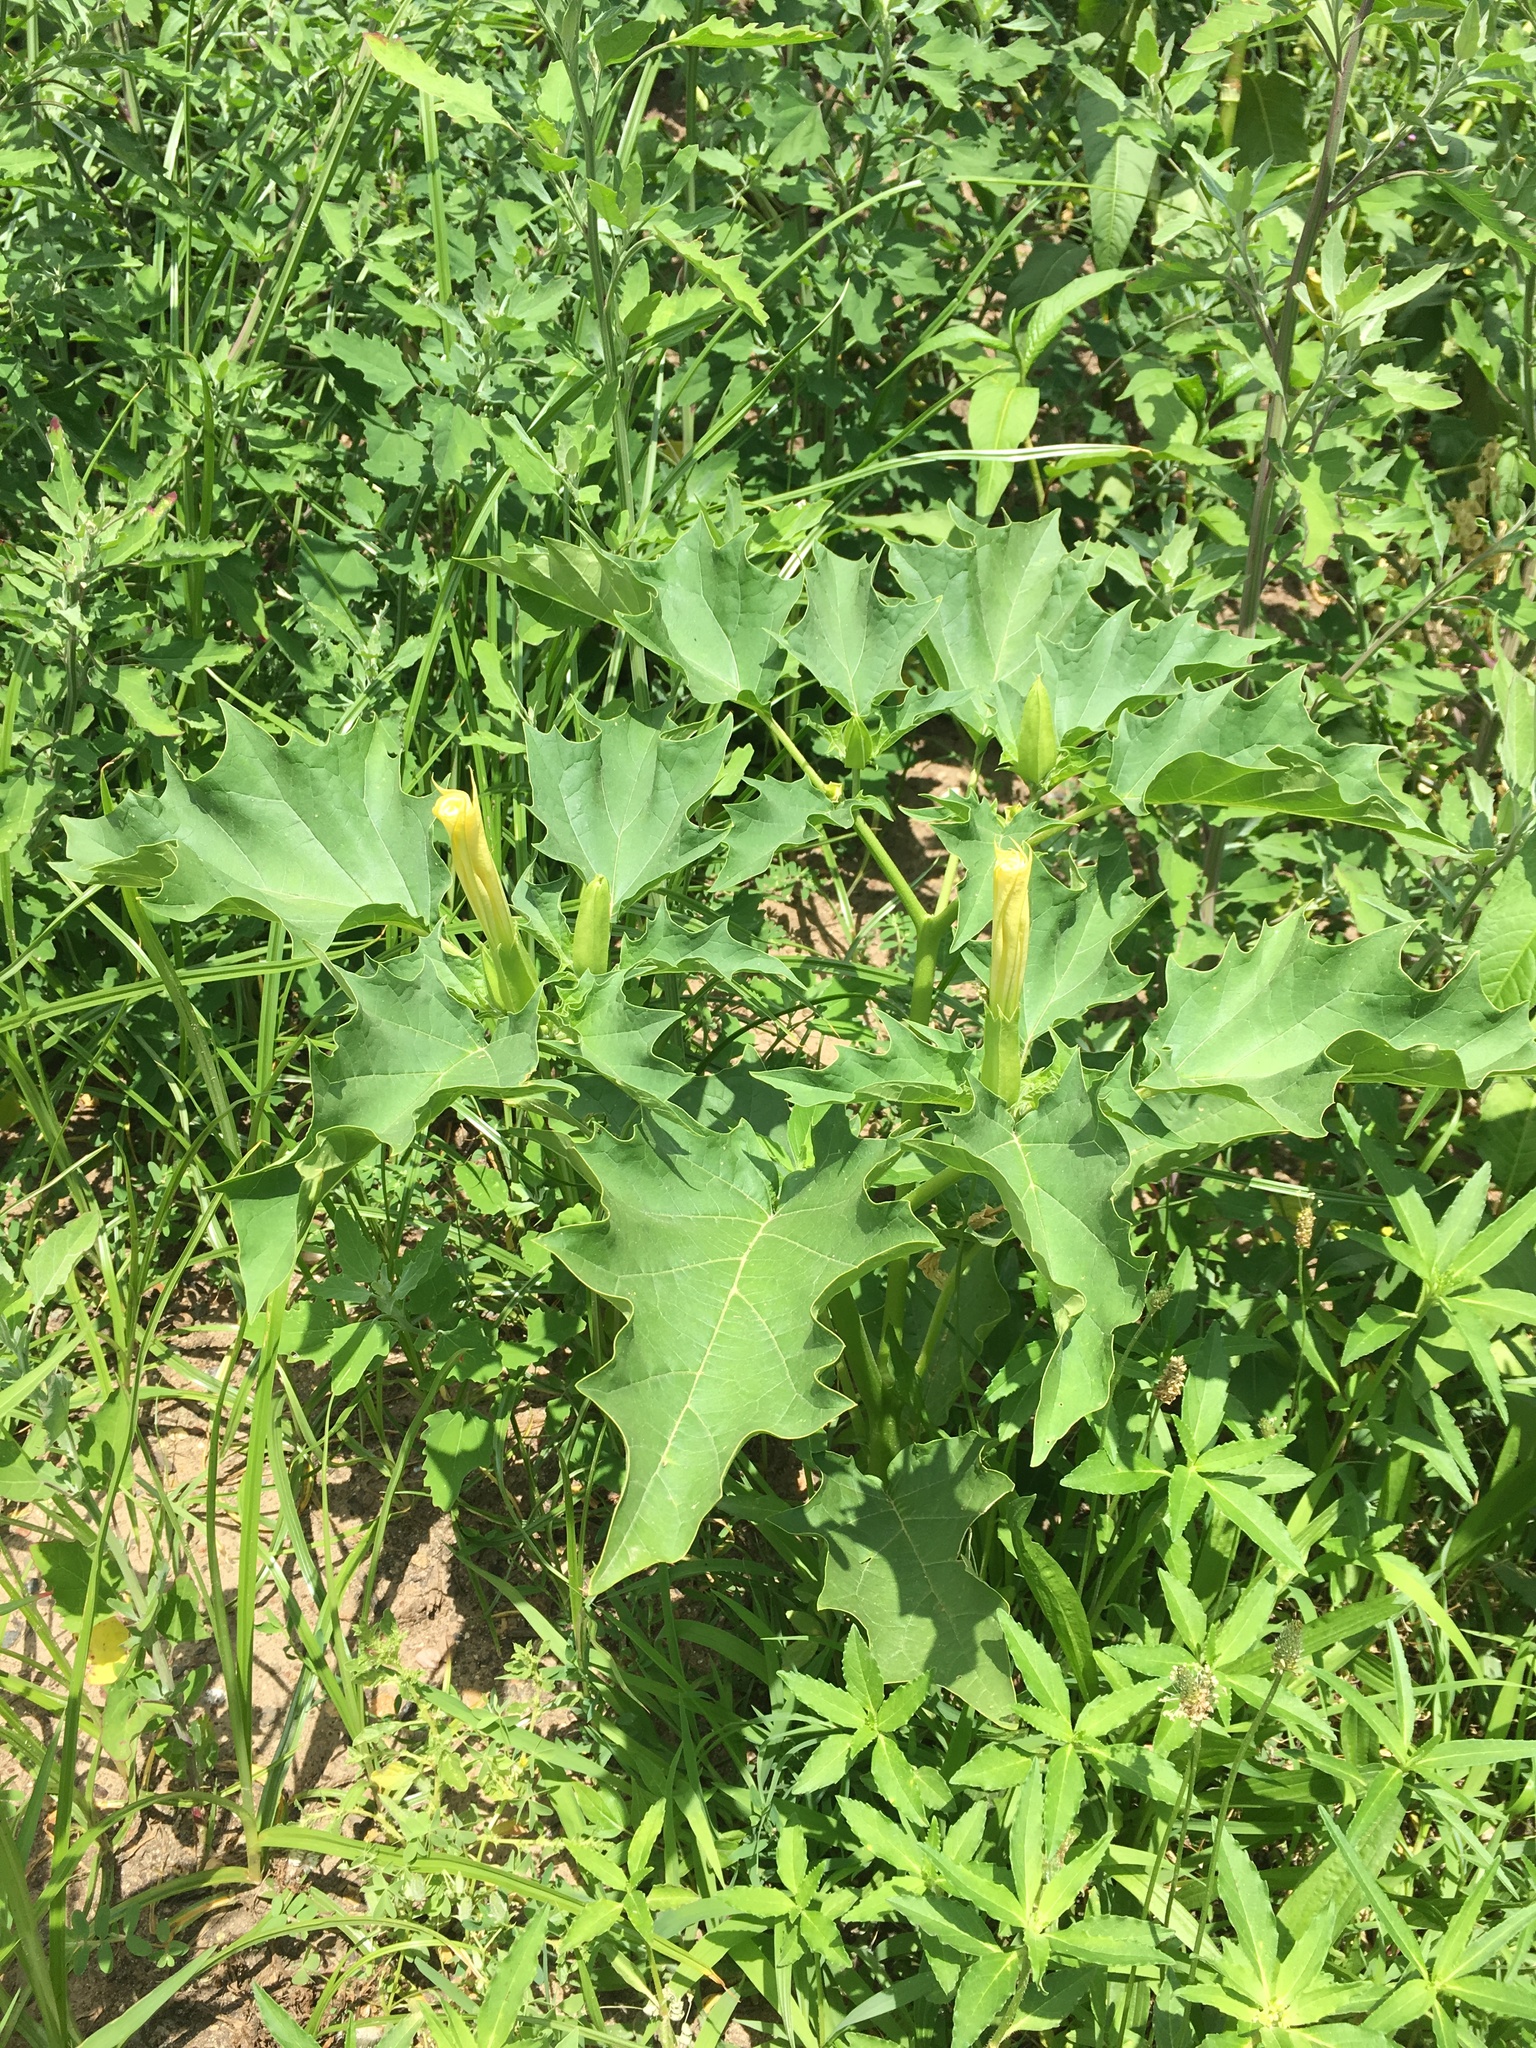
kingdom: Plantae
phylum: Tracheophyta
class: Magnoliopsida
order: Solanales
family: Solanaceae
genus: Datura
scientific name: Datura stramonium
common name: Thorn-apple
